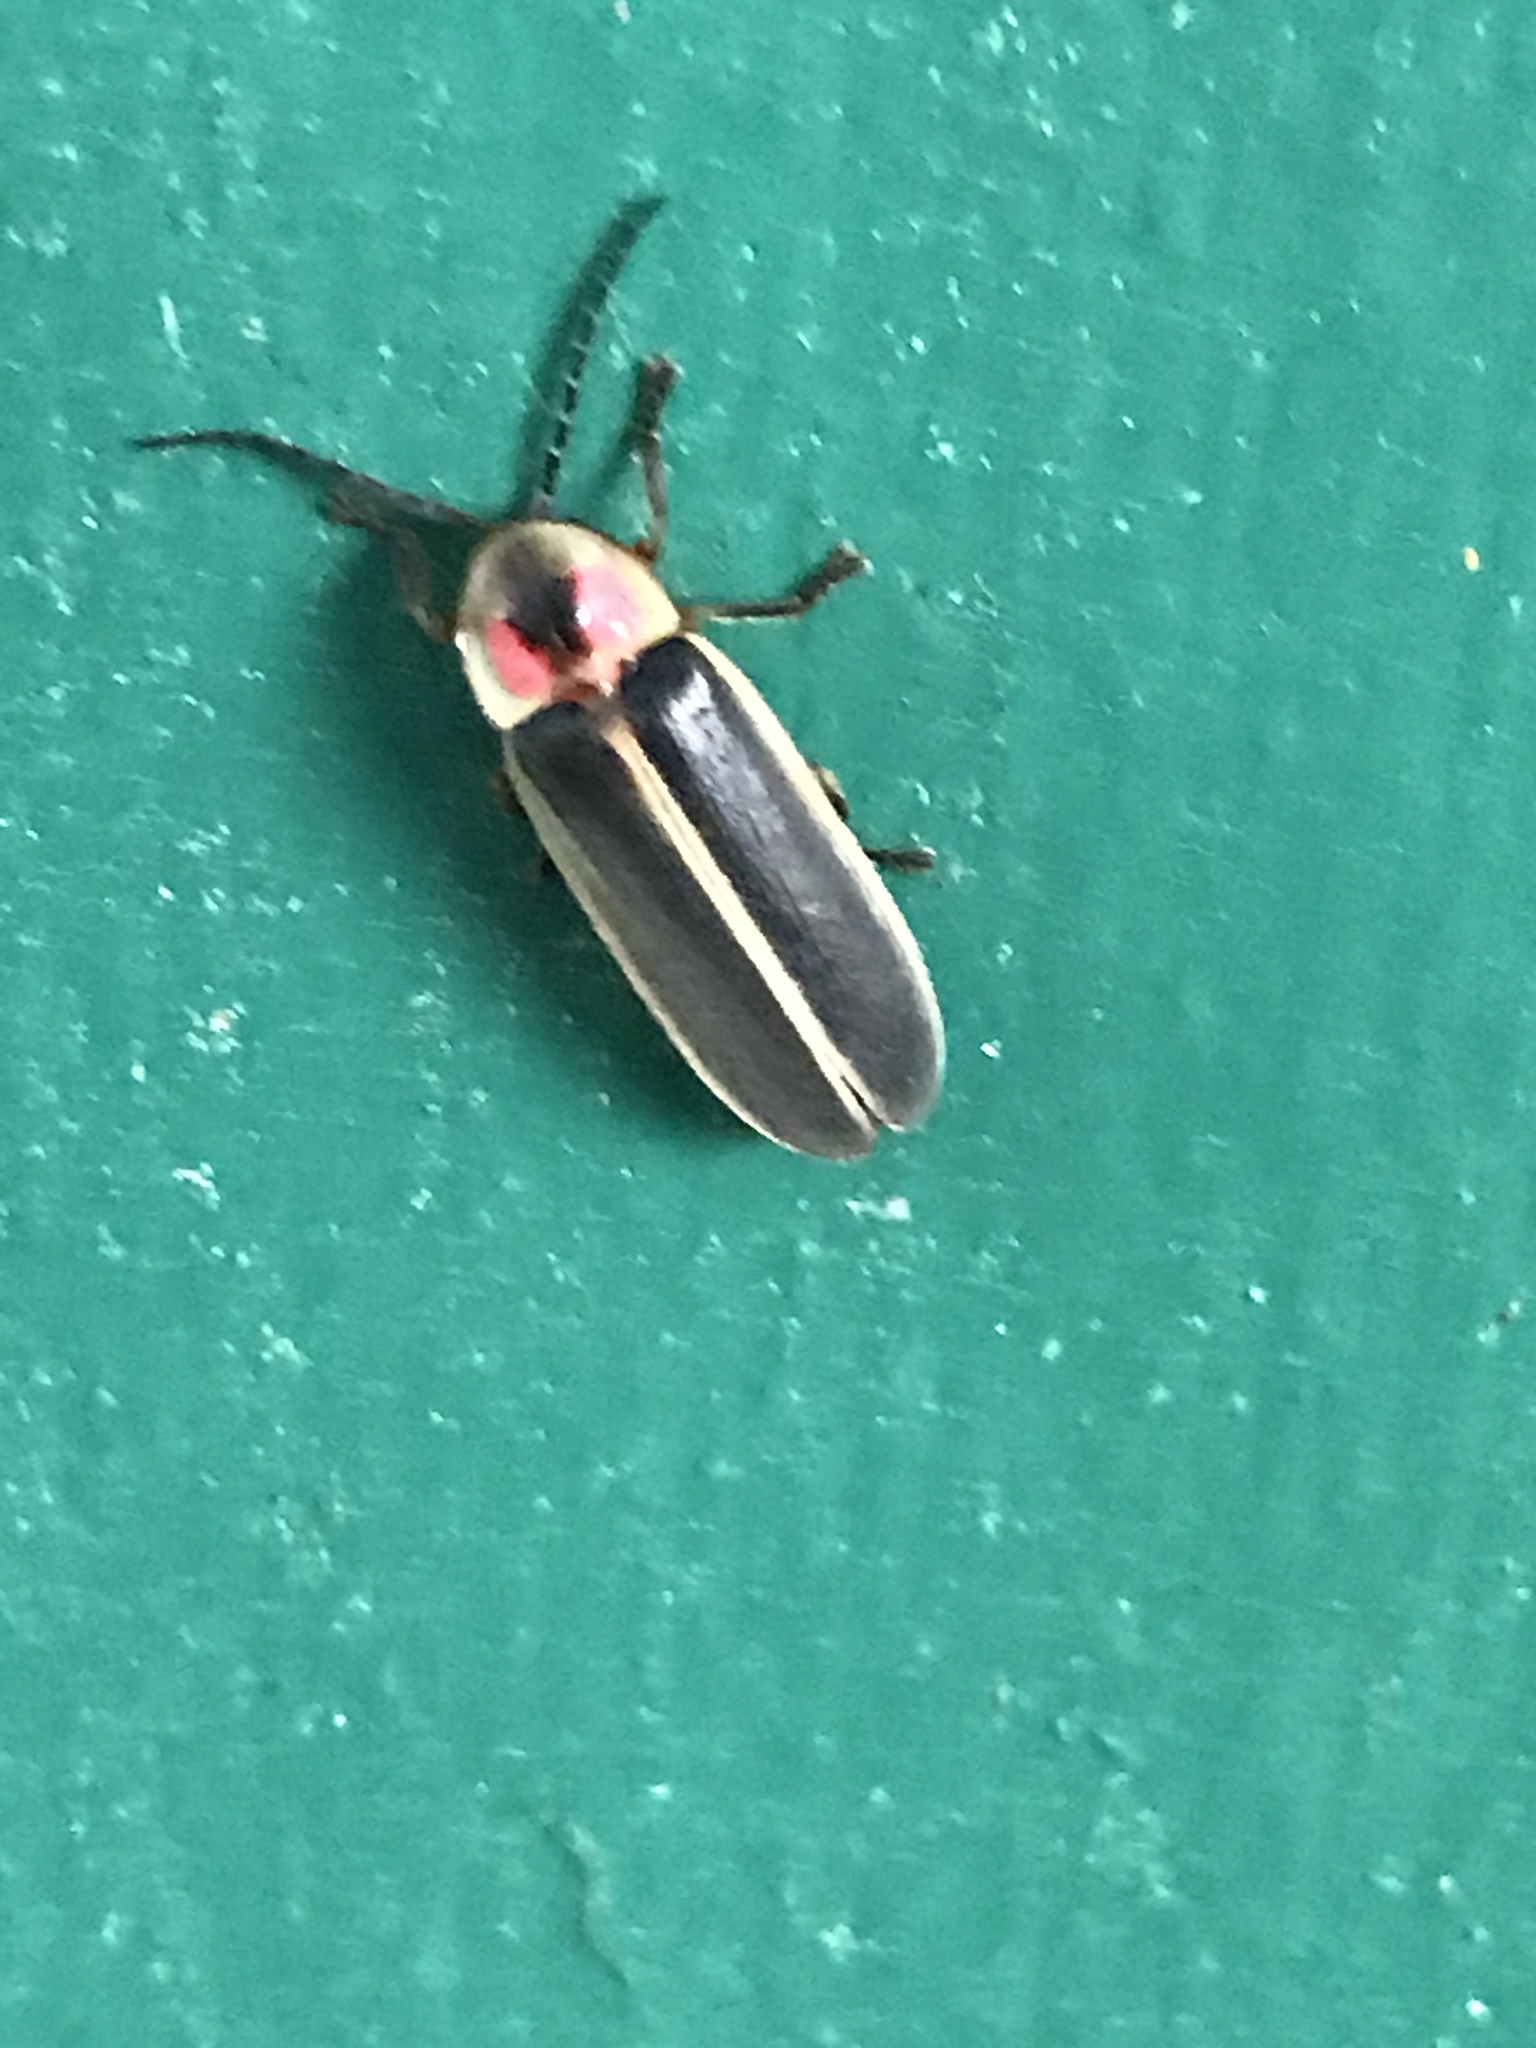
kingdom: Animalia
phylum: Arthropoda
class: Insecta
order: Coleoptera
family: Lampyridae
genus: Photinus
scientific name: Photinus pyralis
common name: Big dipper firefly
